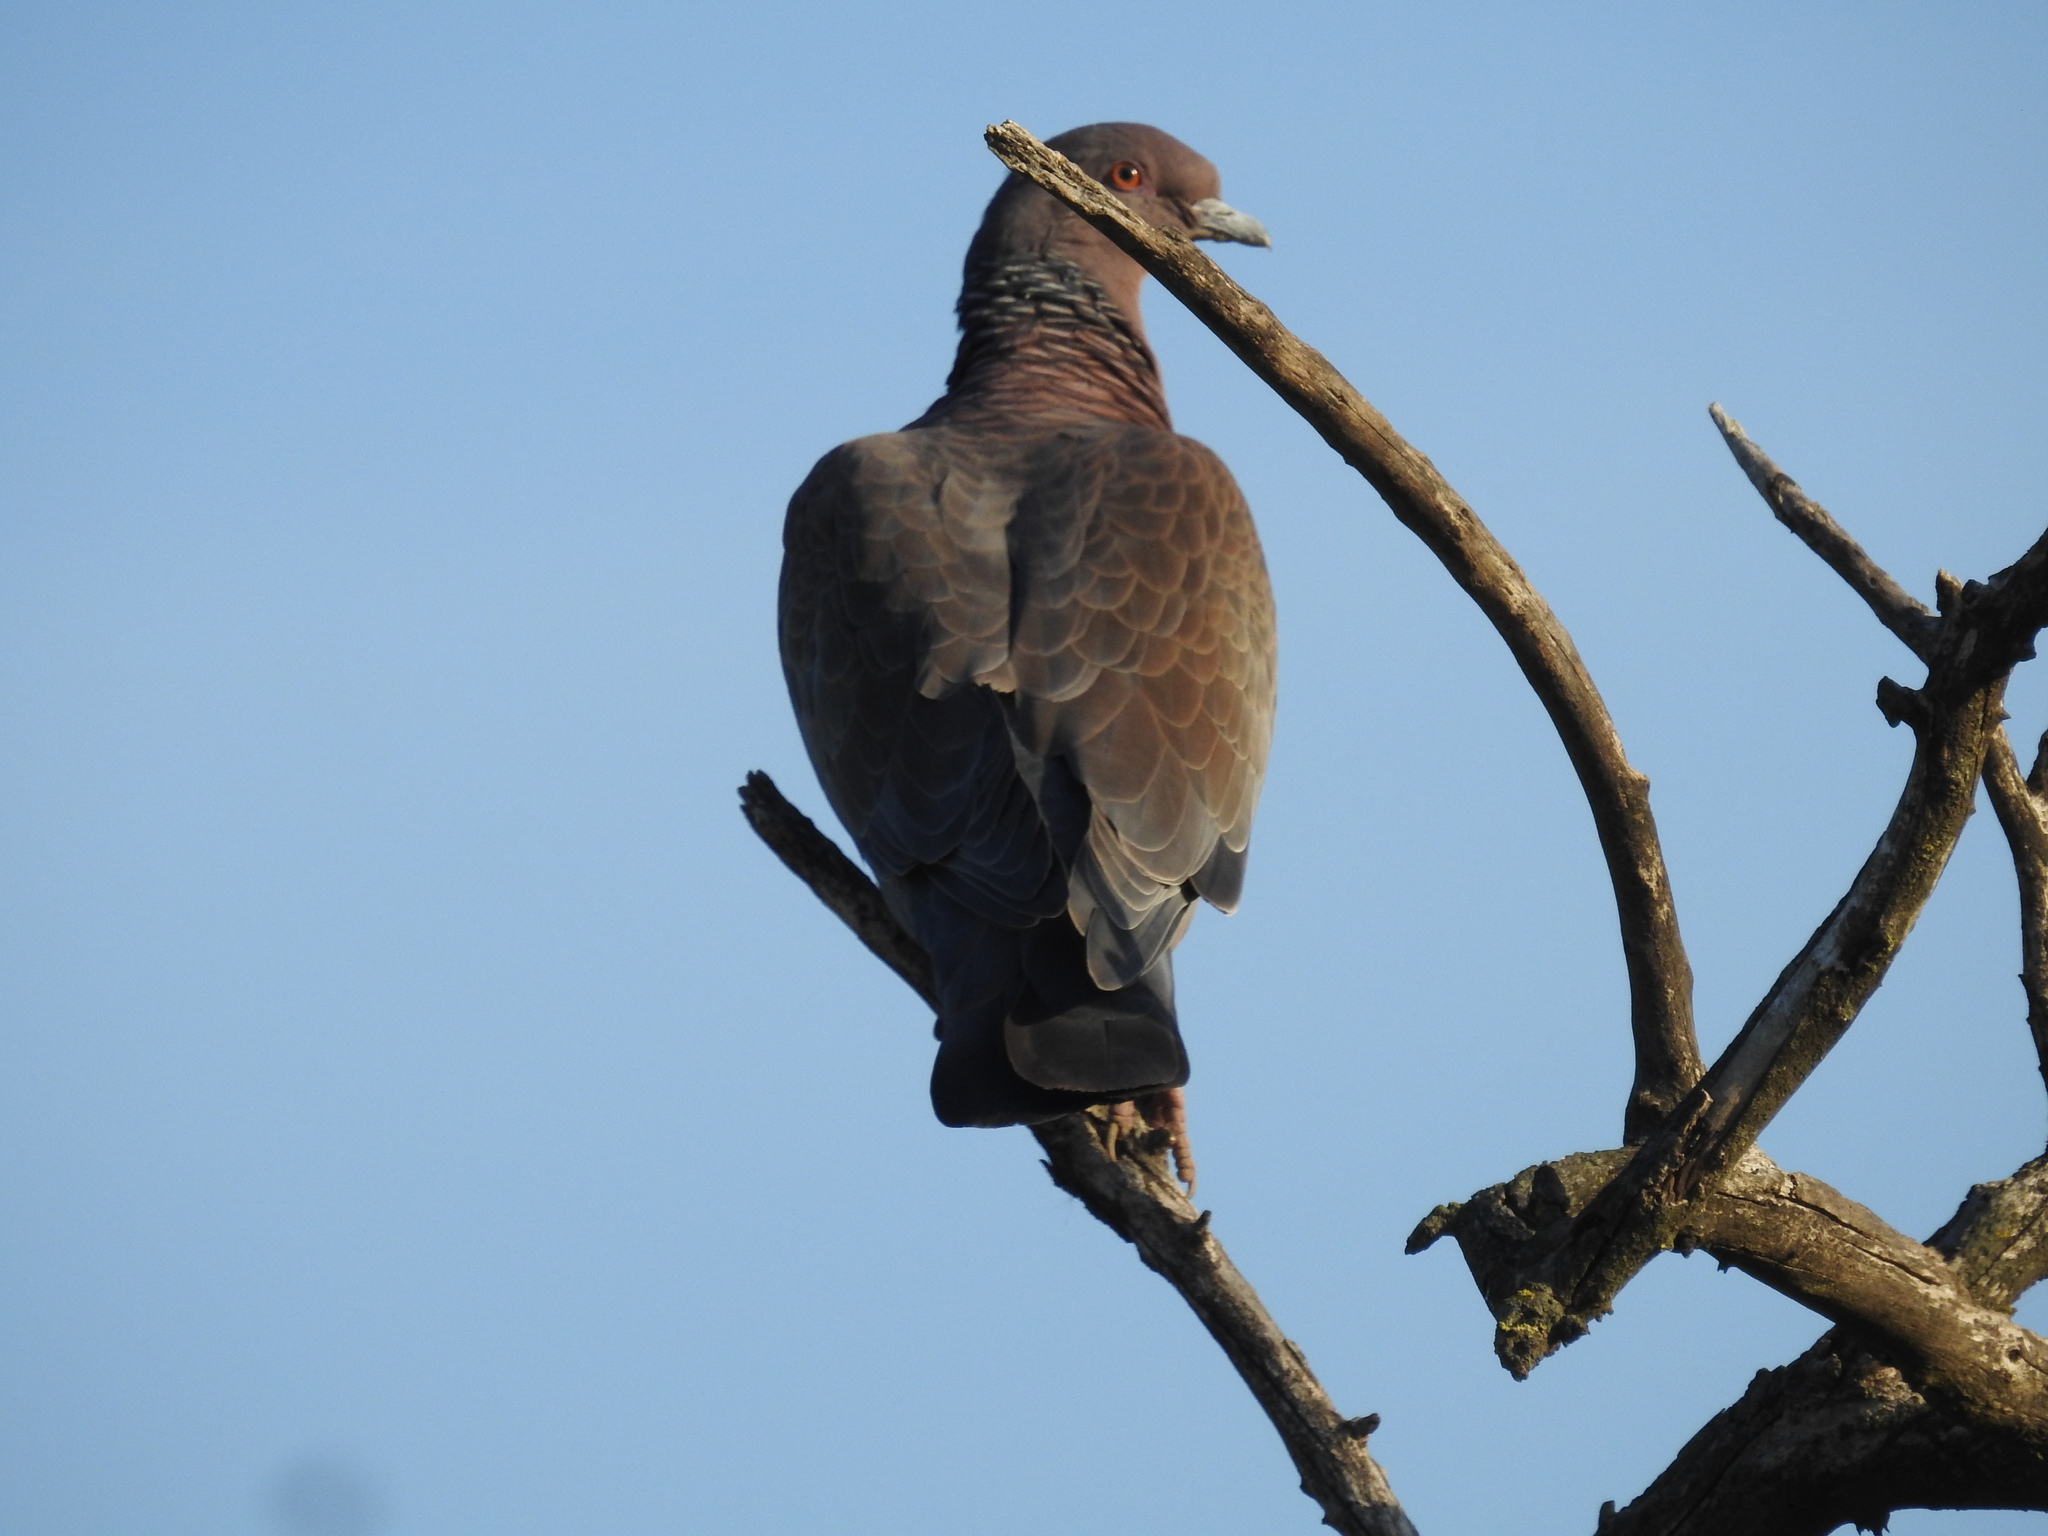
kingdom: Animalia
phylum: Chordata
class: Aves
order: Columbiformes
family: Columbidae
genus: Patagioenas
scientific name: Patagioenas picazuro
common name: Picazuro pigeon
